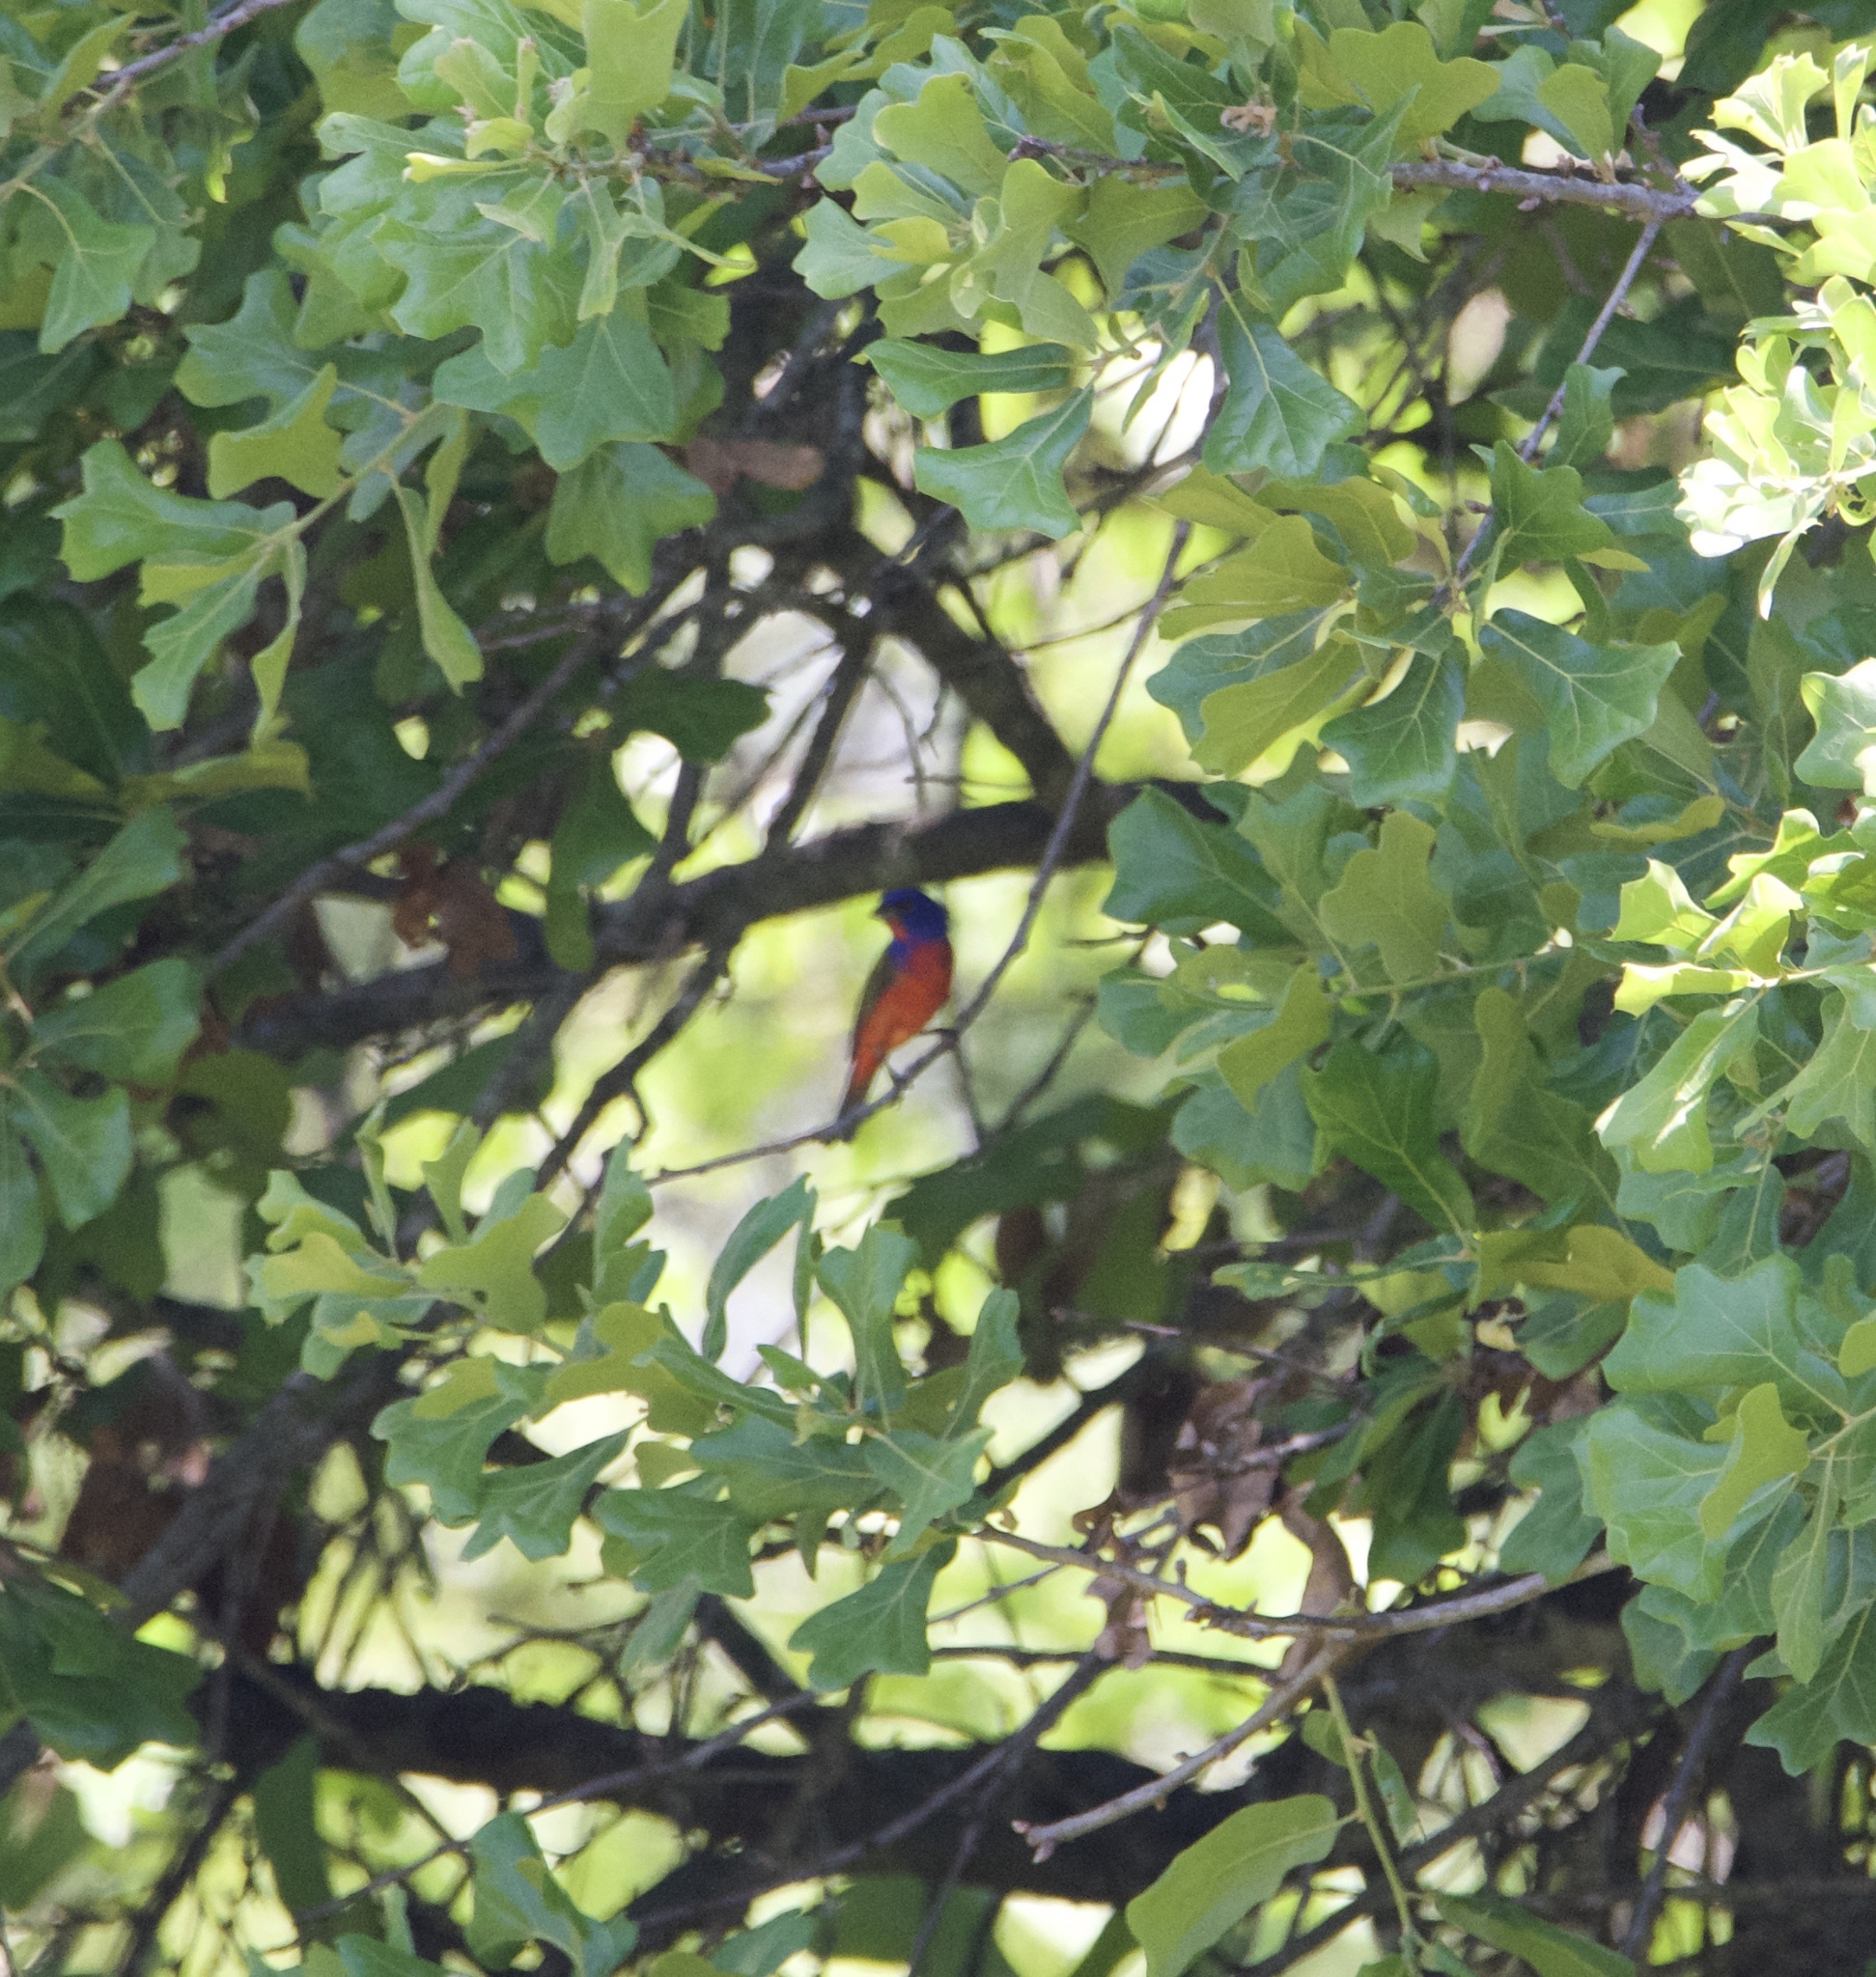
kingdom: Animalia
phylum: Chordata
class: Aves
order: Passeriformes
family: Cardinalidae
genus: Passerina
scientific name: Passerina ciris
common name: Painted bunting
